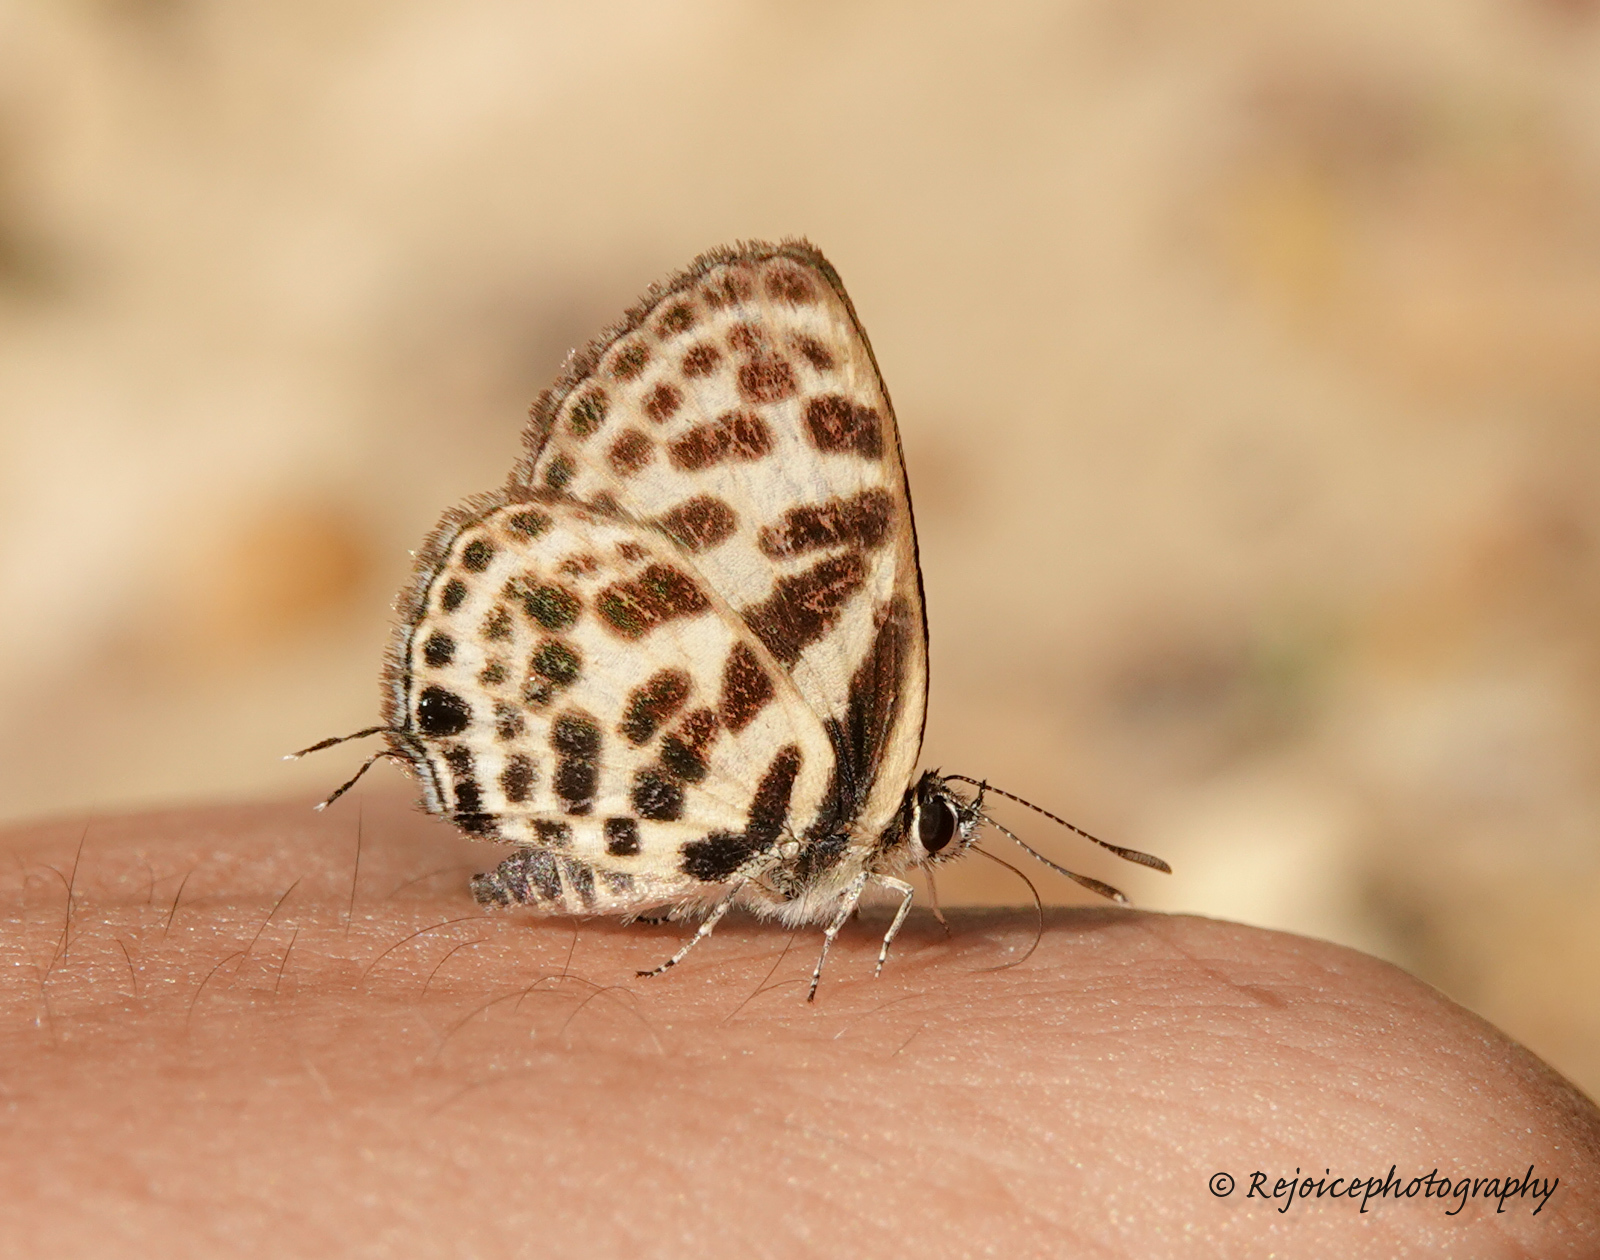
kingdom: Animalia
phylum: Arthropoda
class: Insecta
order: Lepidoptera
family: Lycaenidae
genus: Tarucus
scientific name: Tarucus
